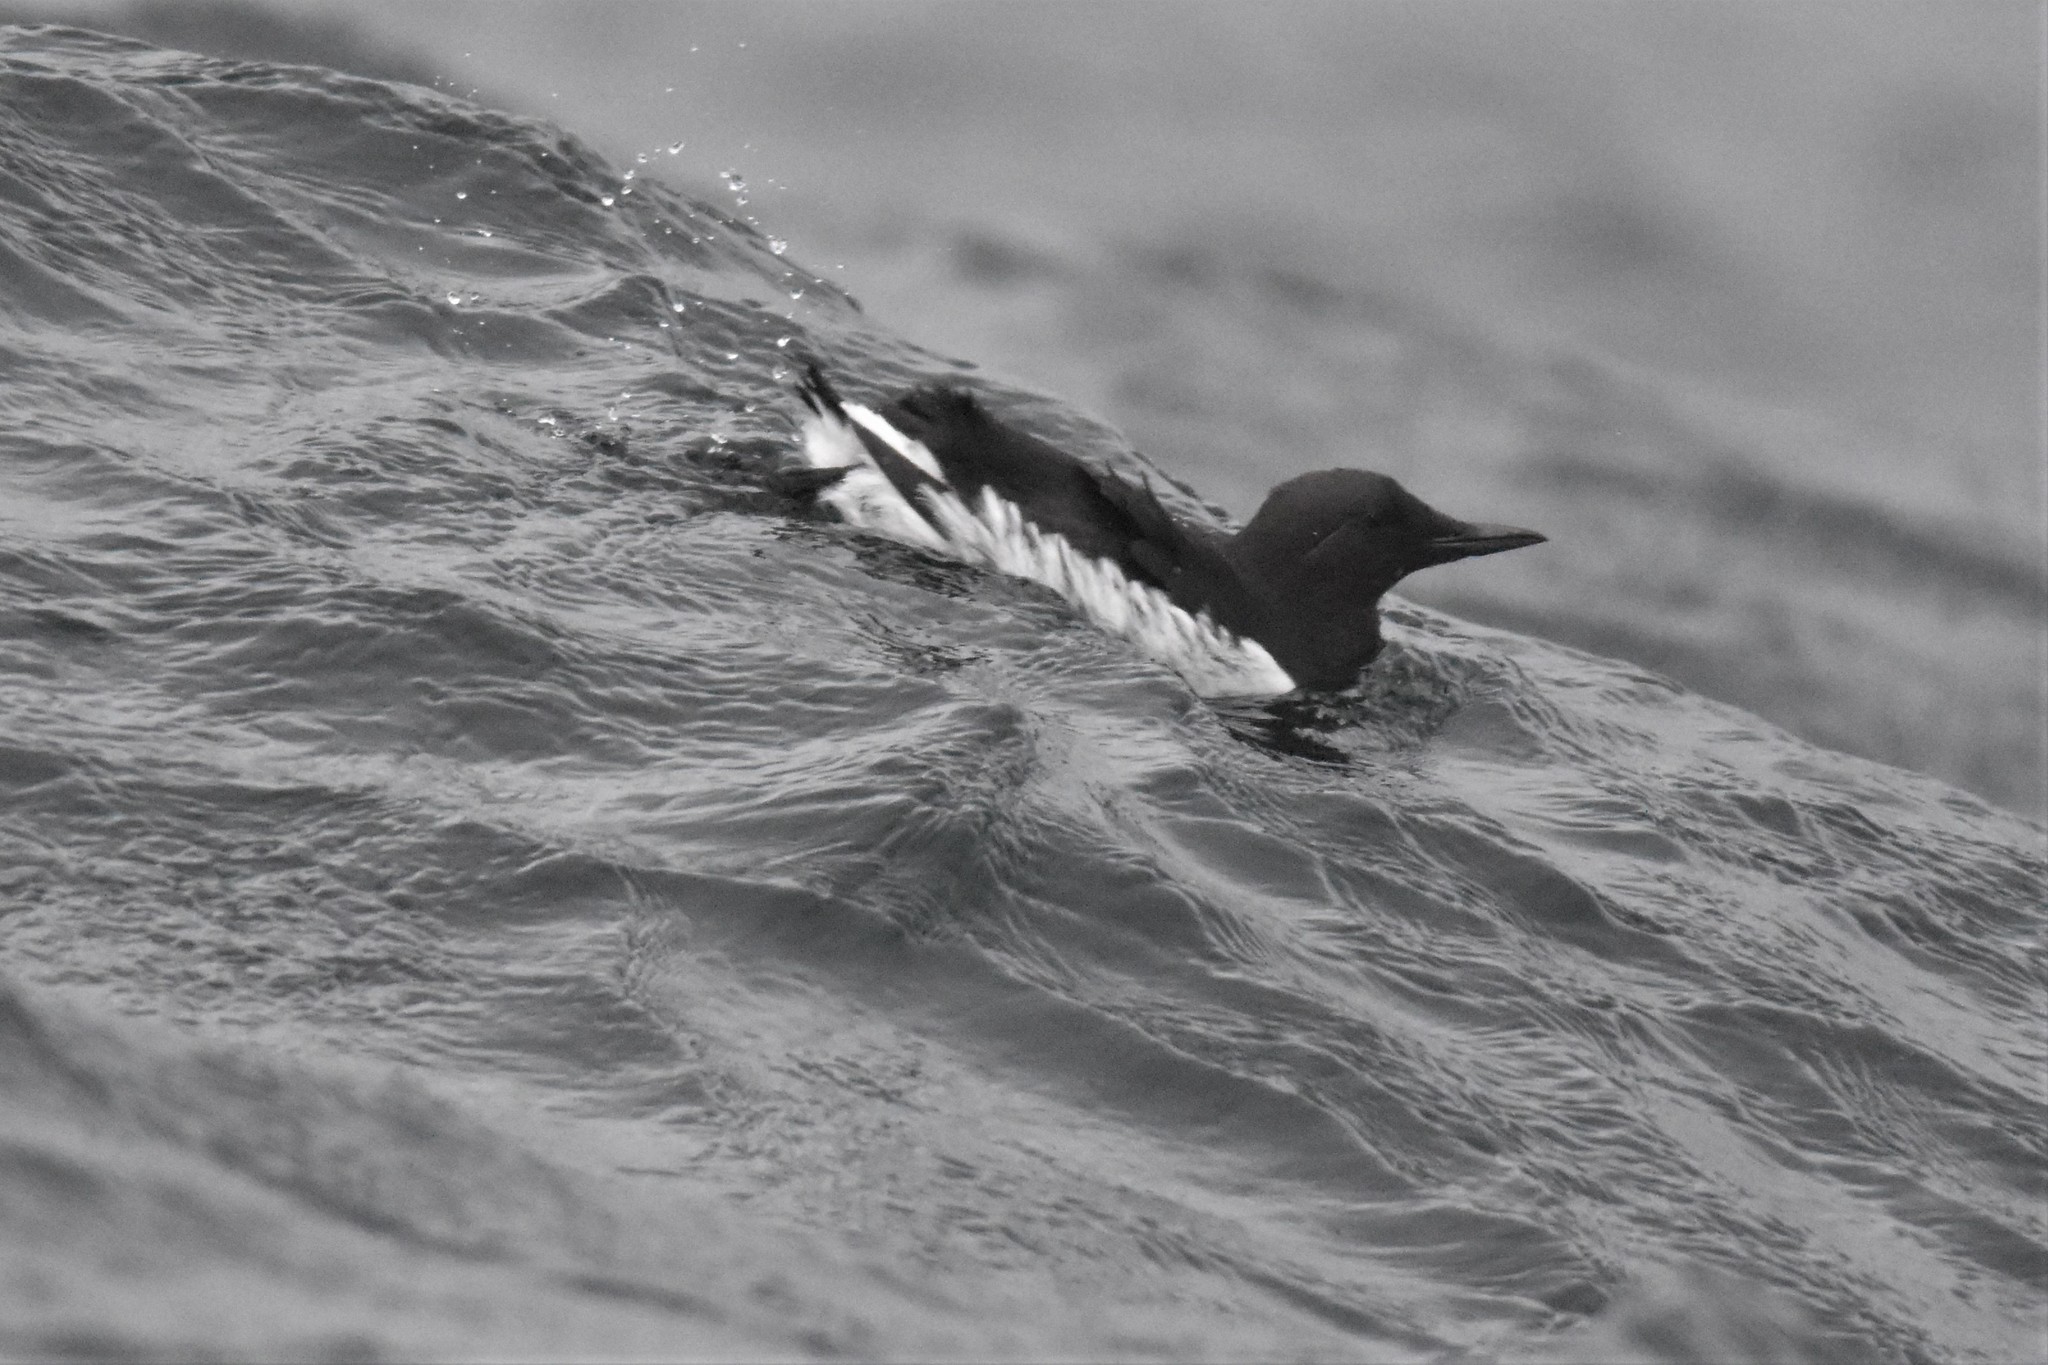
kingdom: Animalia
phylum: Chordata
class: Aves
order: Charadriiformes
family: Alcidae
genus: Uria
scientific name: Uria aalge
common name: Common murre
